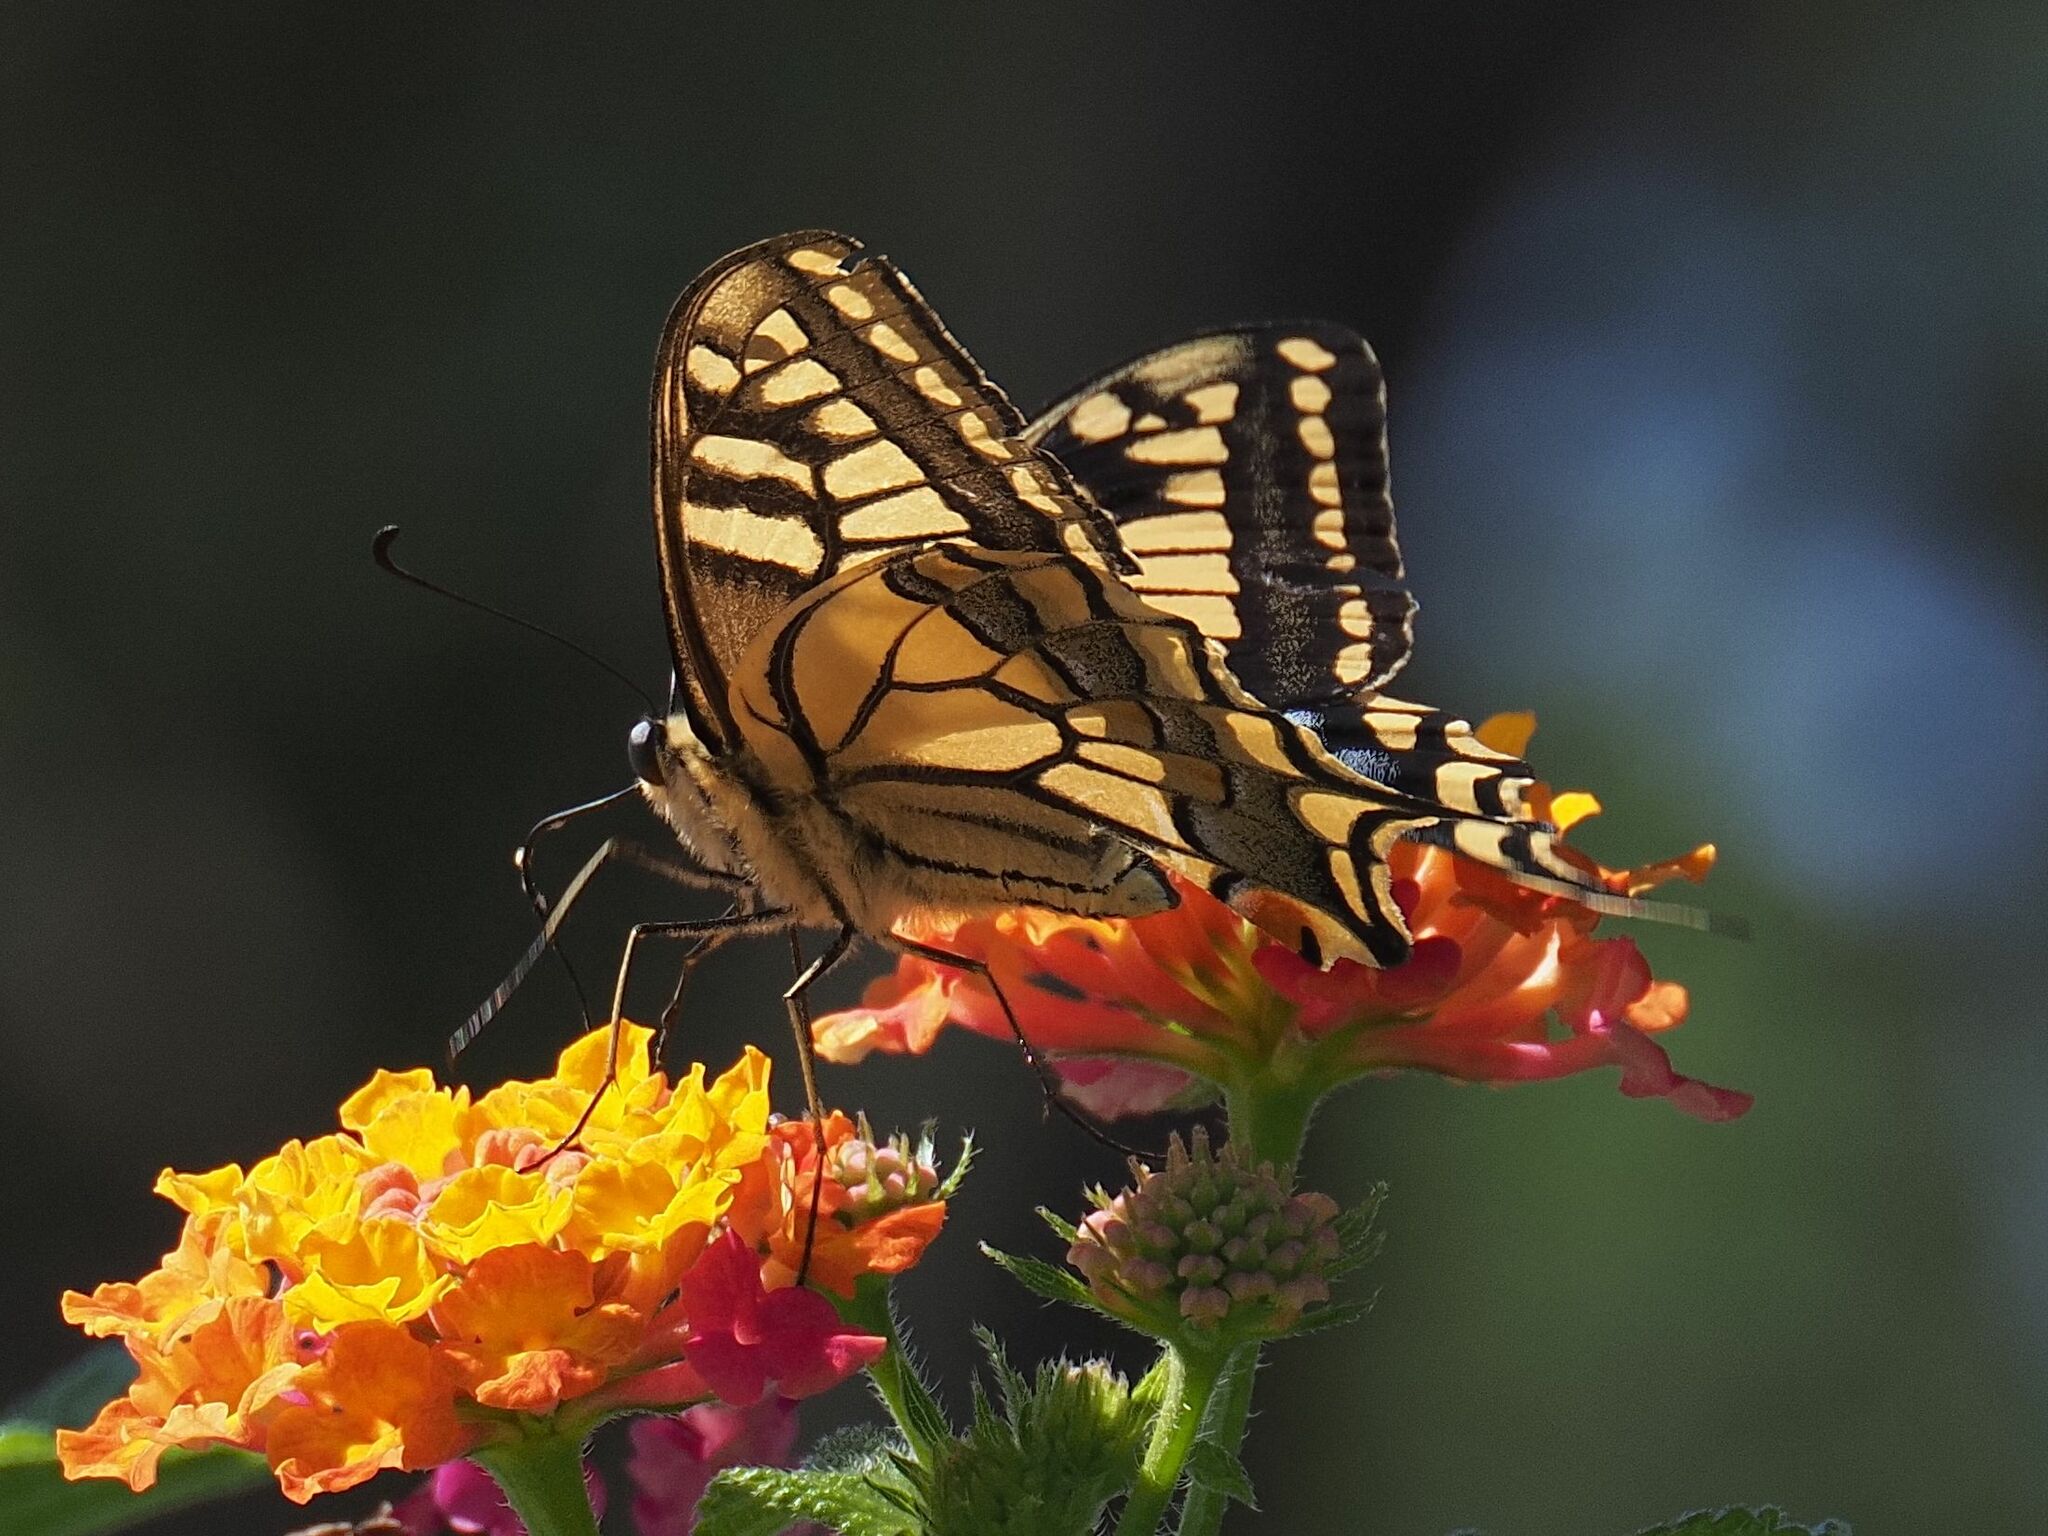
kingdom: Animalia
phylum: Arthropoda
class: Insecta
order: Lepidoptera
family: Papilionidae
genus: Papilio
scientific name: Papilio machaon
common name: Swallowtail
